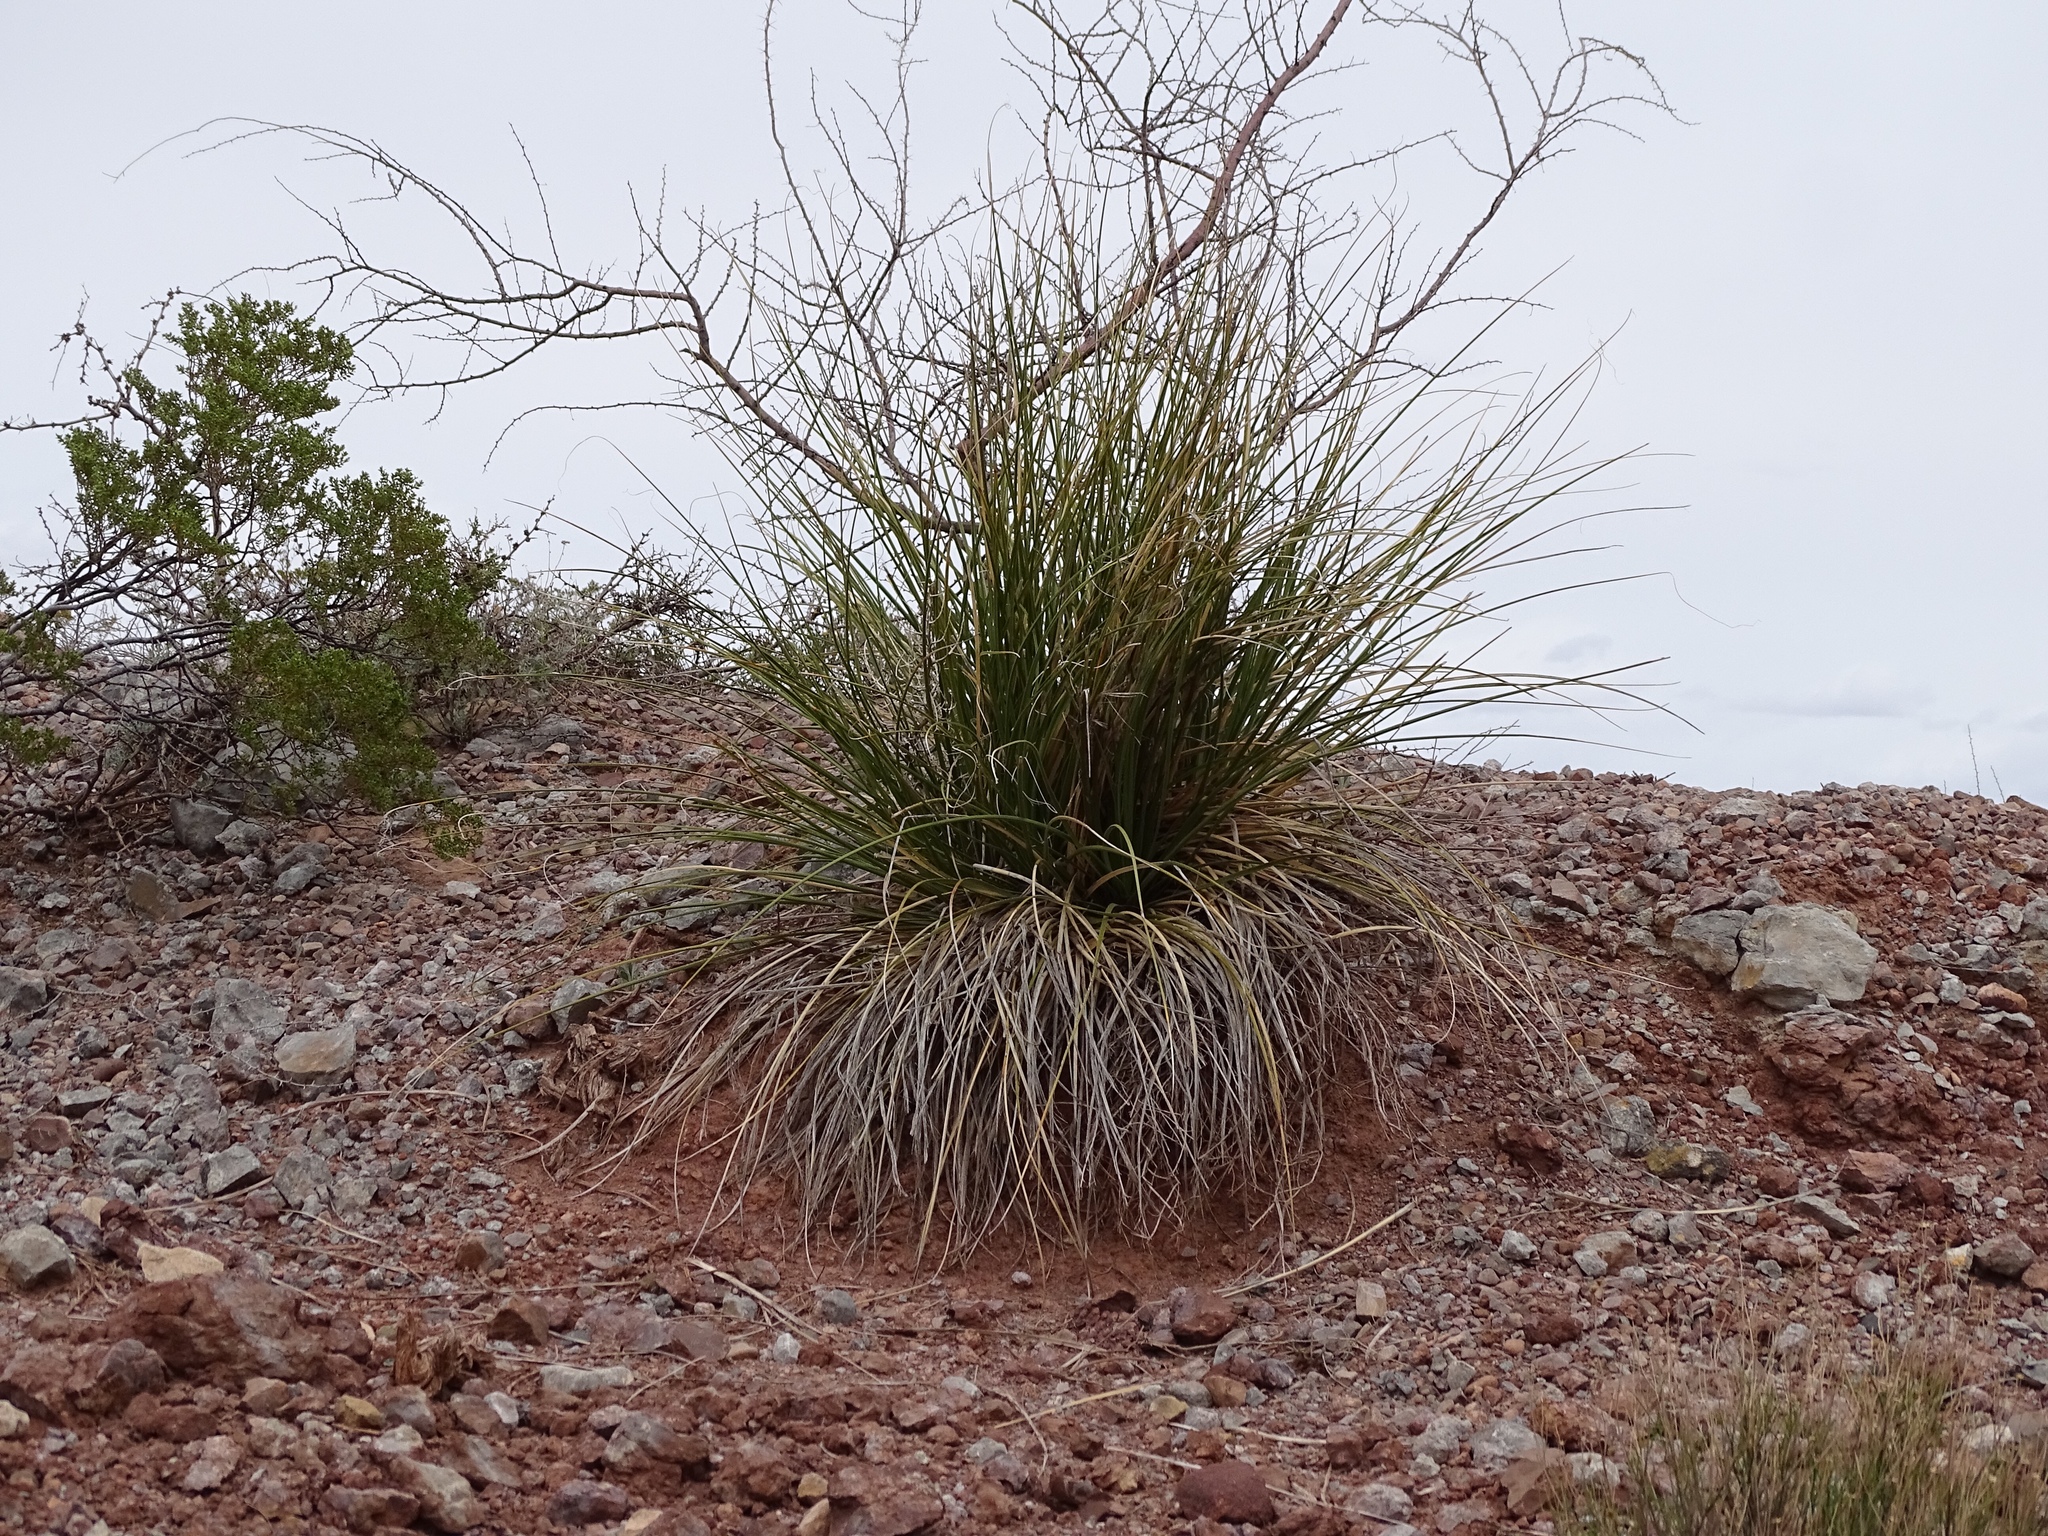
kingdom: Plantae
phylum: Tracheophyta
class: Liliopsida
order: Asparagales
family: Asparagaceae
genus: Nolina
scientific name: Nolina microcarpa
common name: Bear-grass
